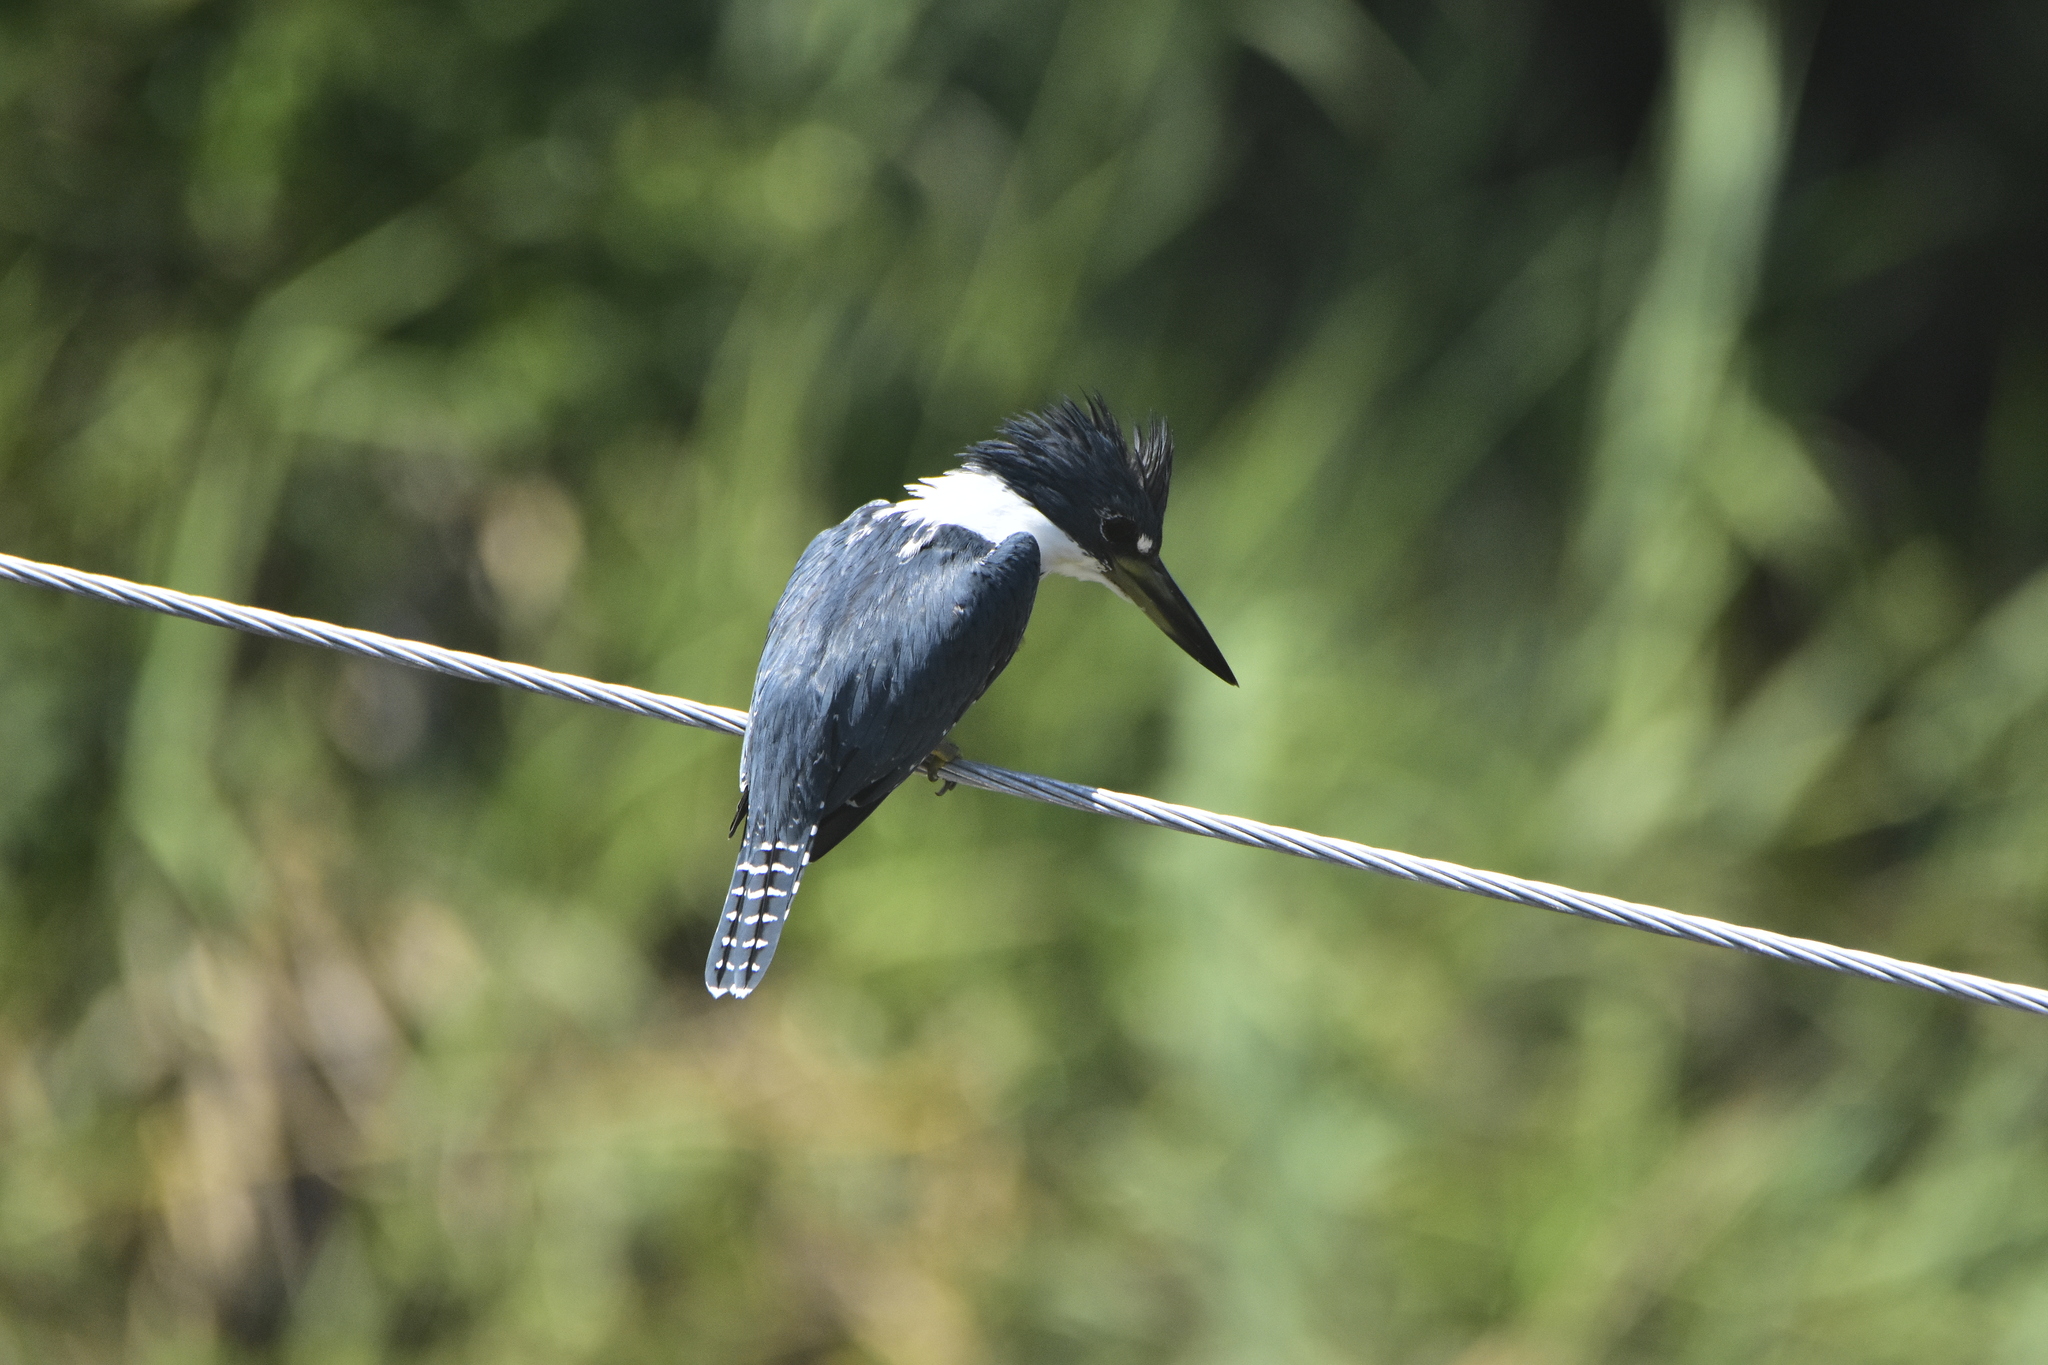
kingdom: Animalia
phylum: Chordata
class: Aves
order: Coraciiformes
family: Alcedinidae
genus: Megaceryle
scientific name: Megaceryle torquata
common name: Ringed kingfisher
